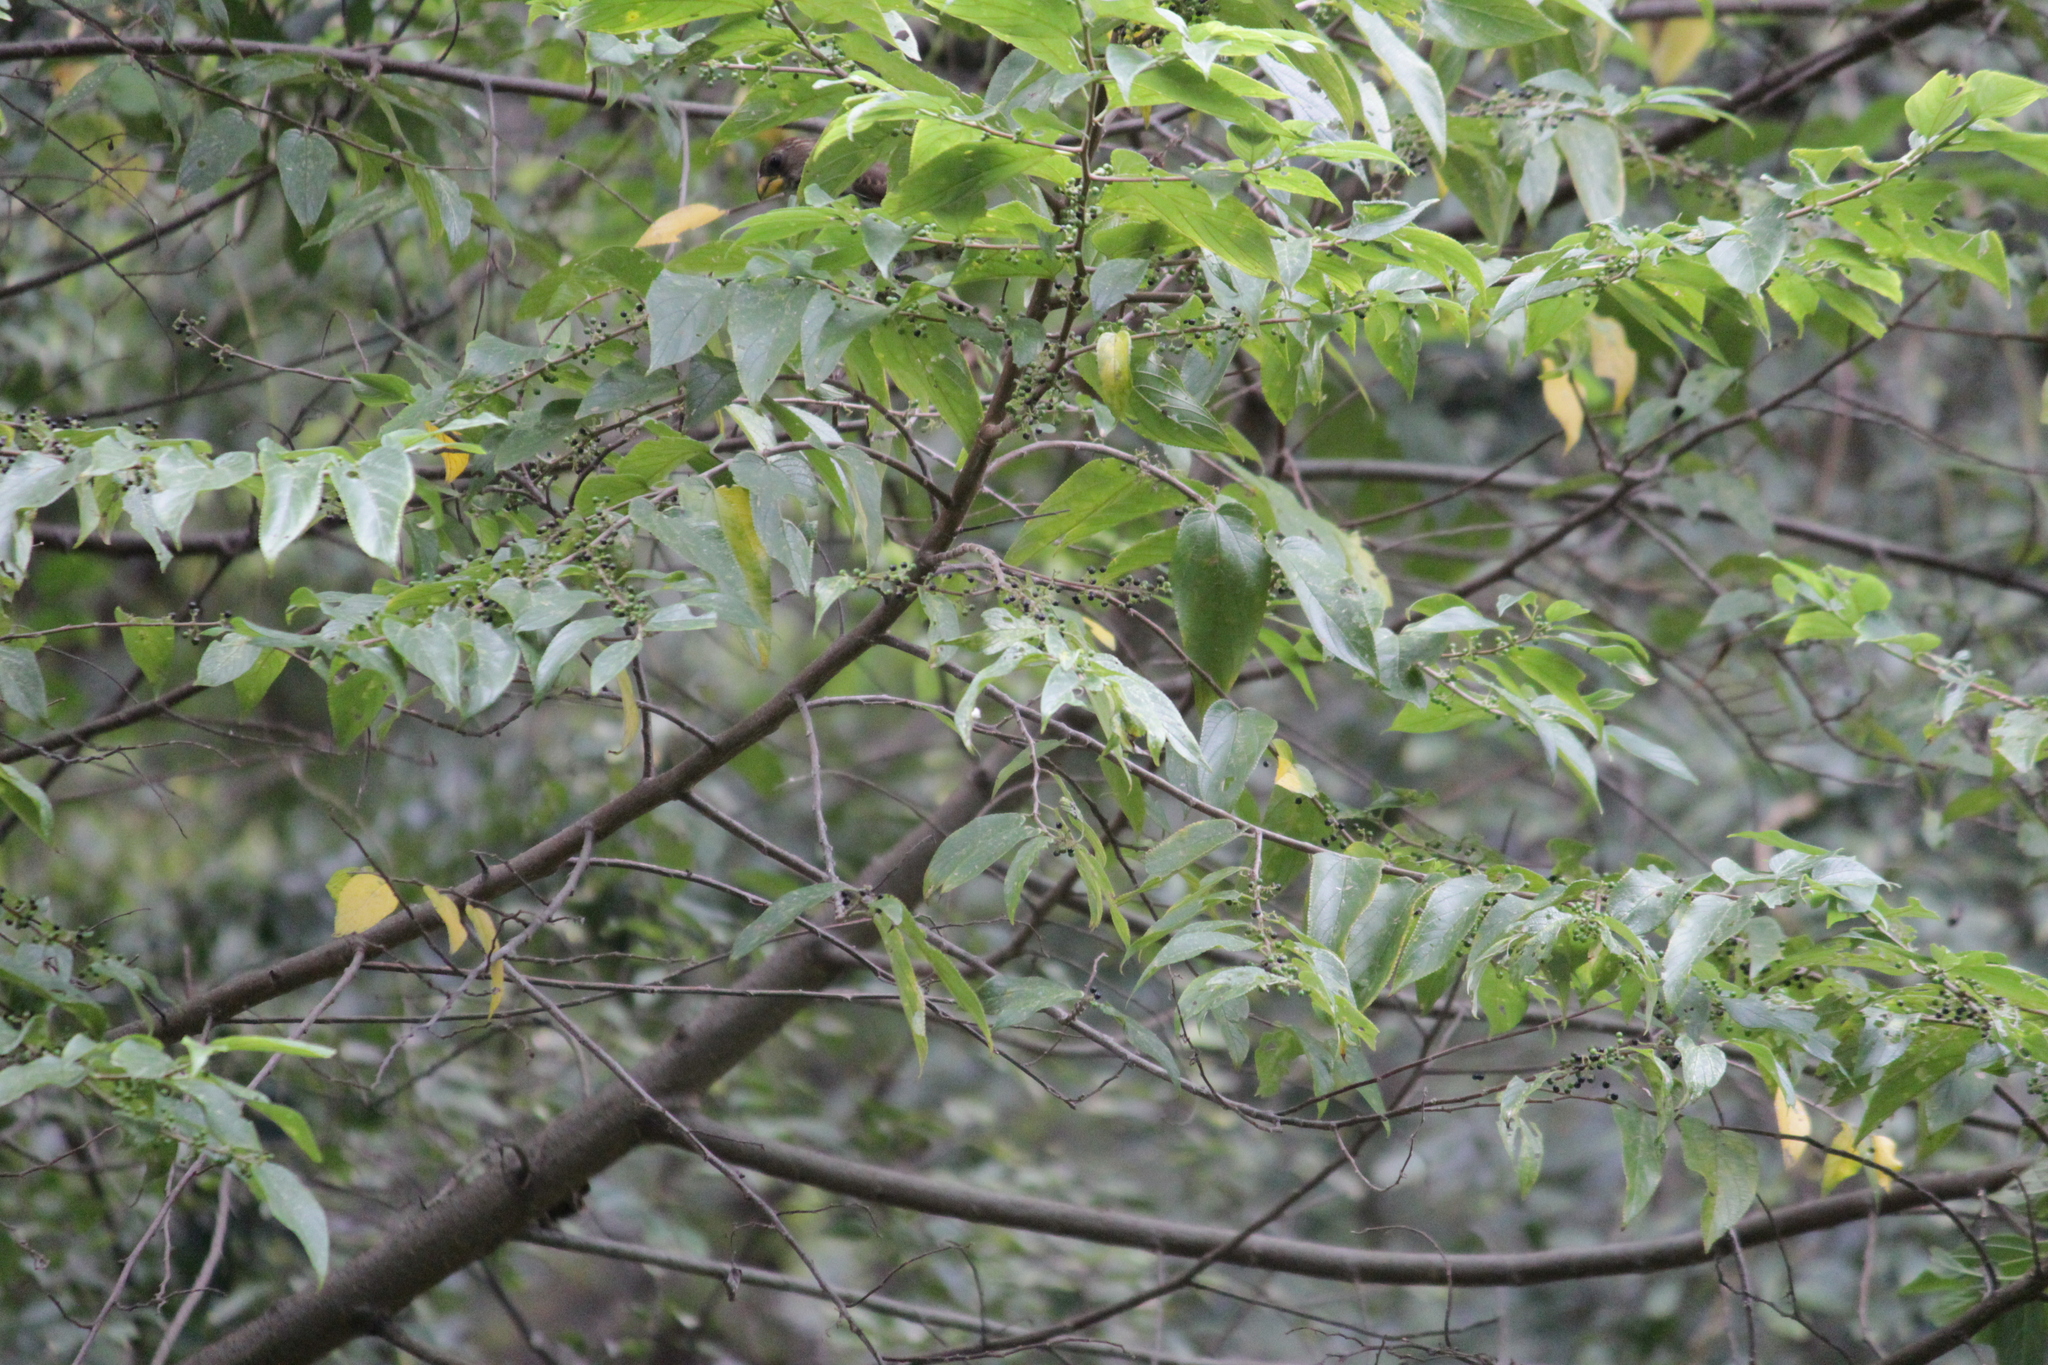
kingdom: Plantae
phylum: Tracheophyta
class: Magnoliopsida
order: Rosales
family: Cannabaceae
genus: Trema
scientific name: Trema orientale
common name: Indian charcoal tree
